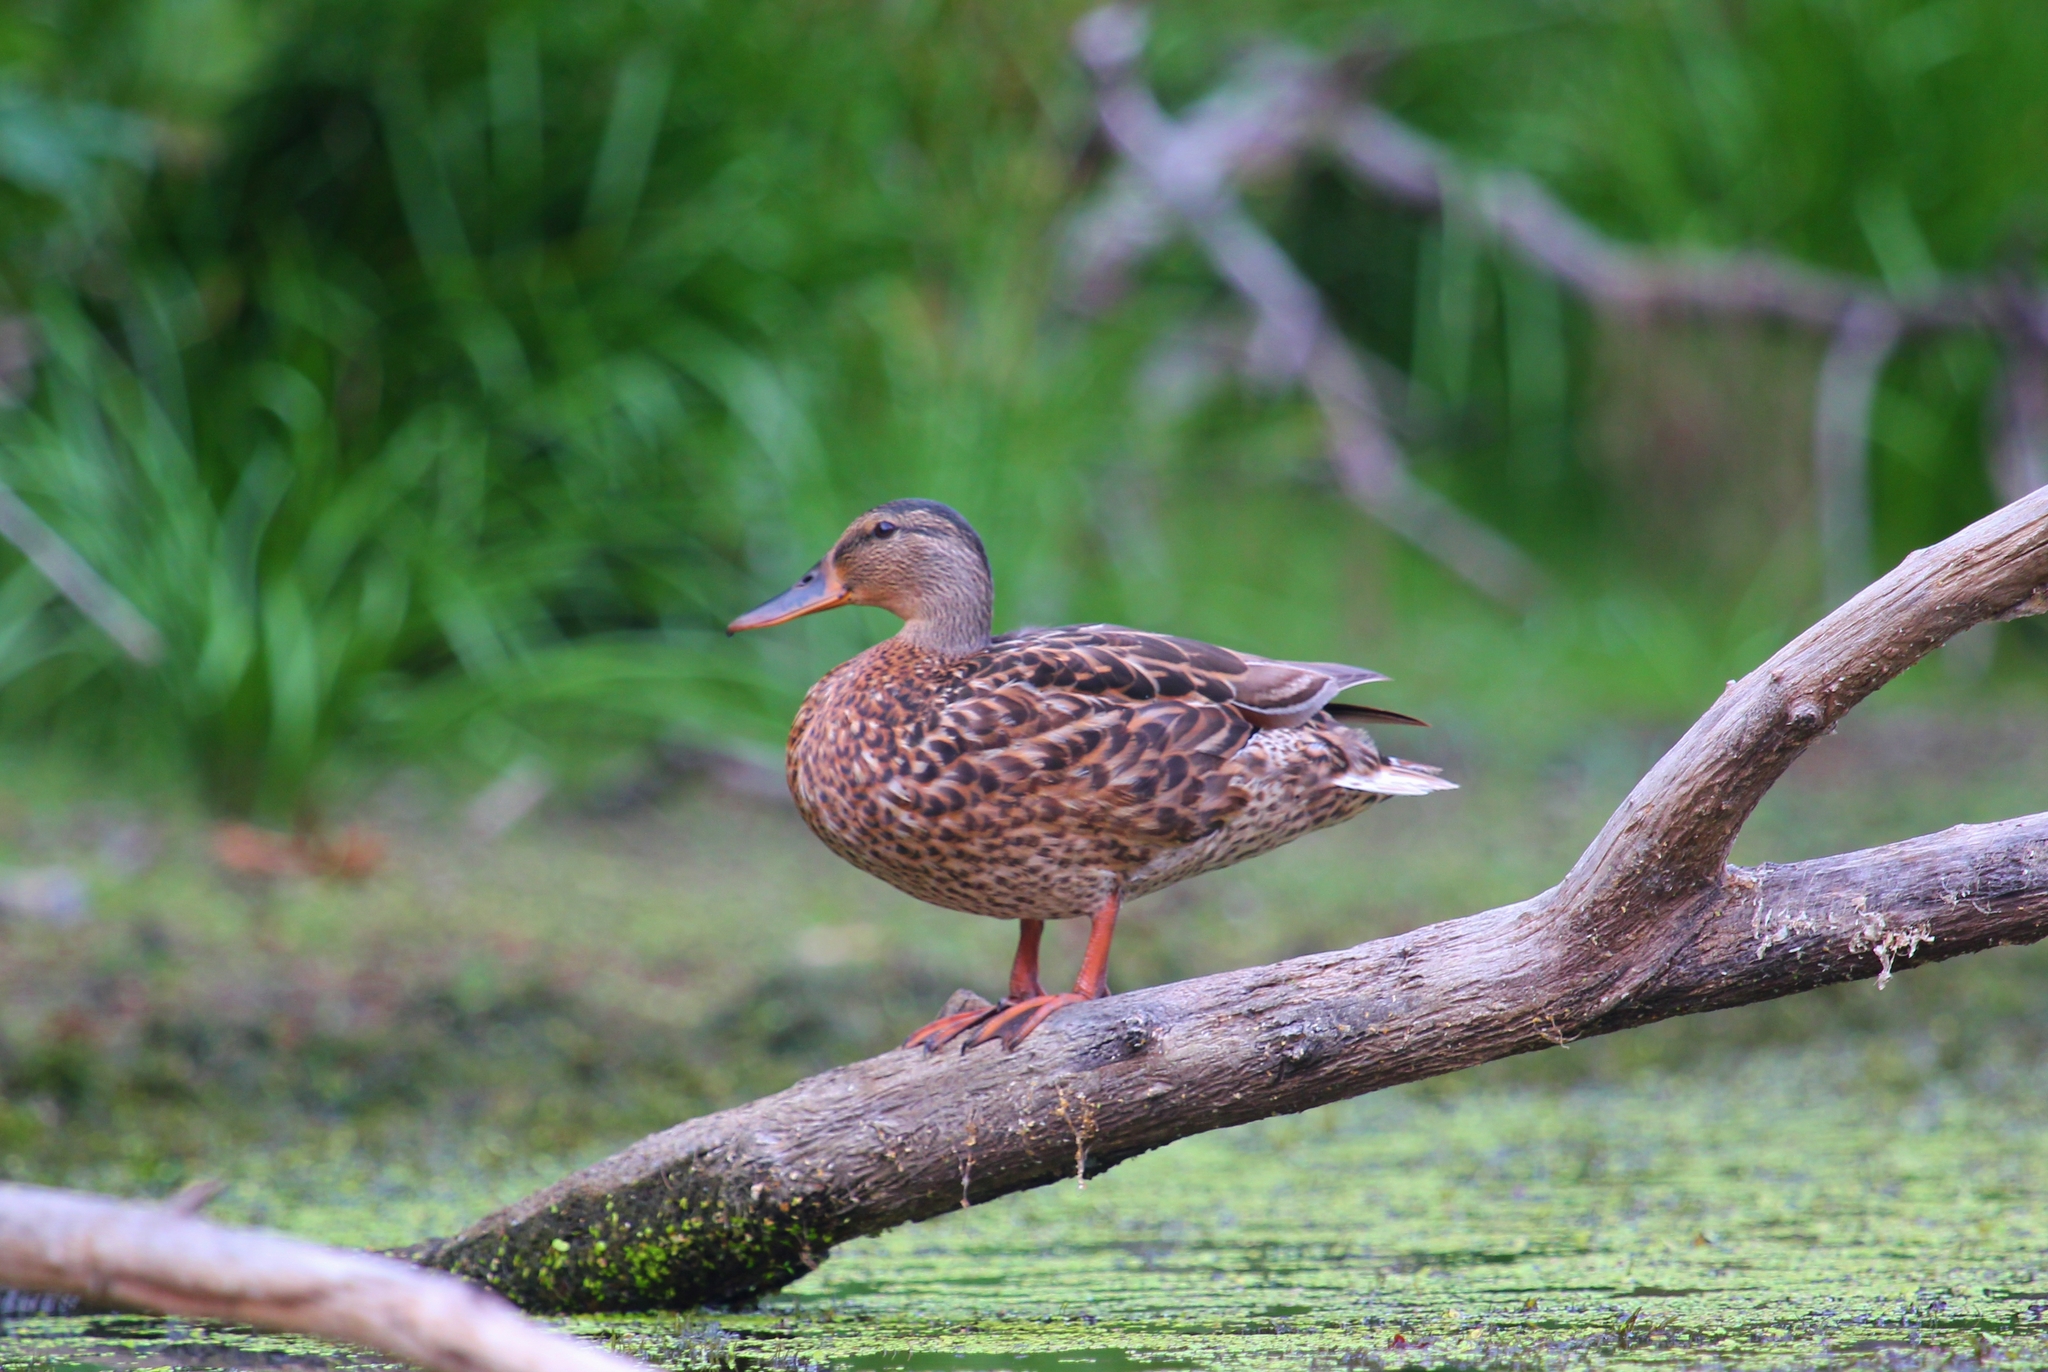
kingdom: Animalia
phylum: Chordata
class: Aves
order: Anseriformes
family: Anatidae
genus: Anas
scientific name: Anas platyrhynchos
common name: Mallard
